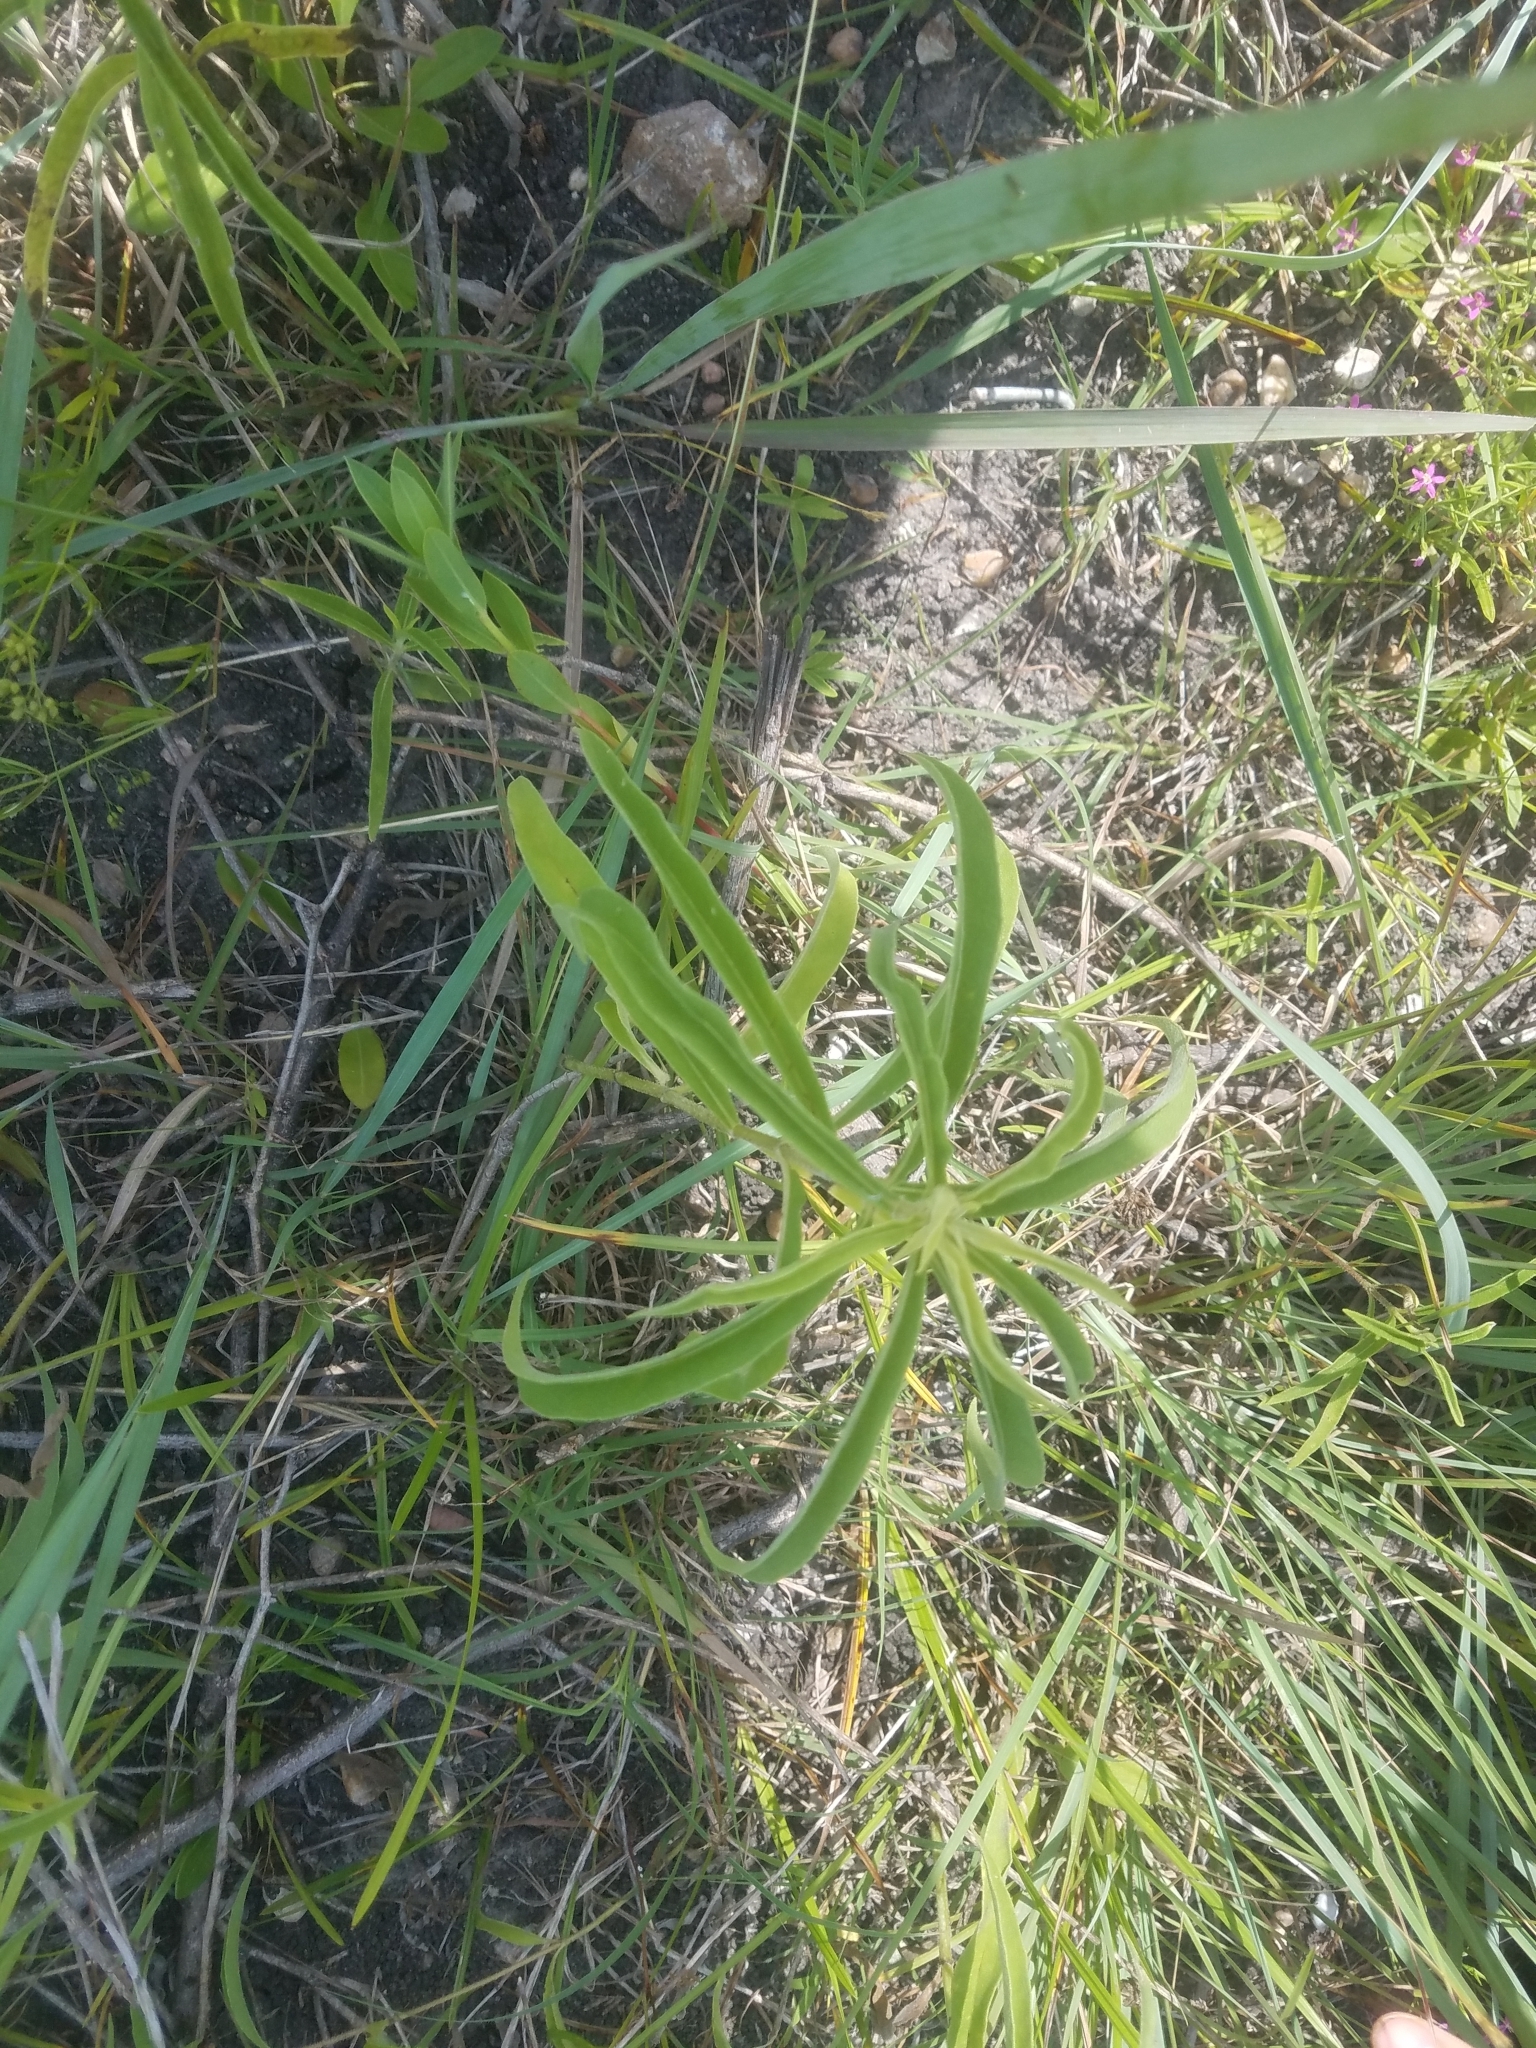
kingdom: Plantae
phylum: Tracheophyta
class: Magnoliopsida
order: Asterales
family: Asteraceae
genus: Helianthus
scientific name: Helianthus maximiliani
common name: Maximilian's sunflower
